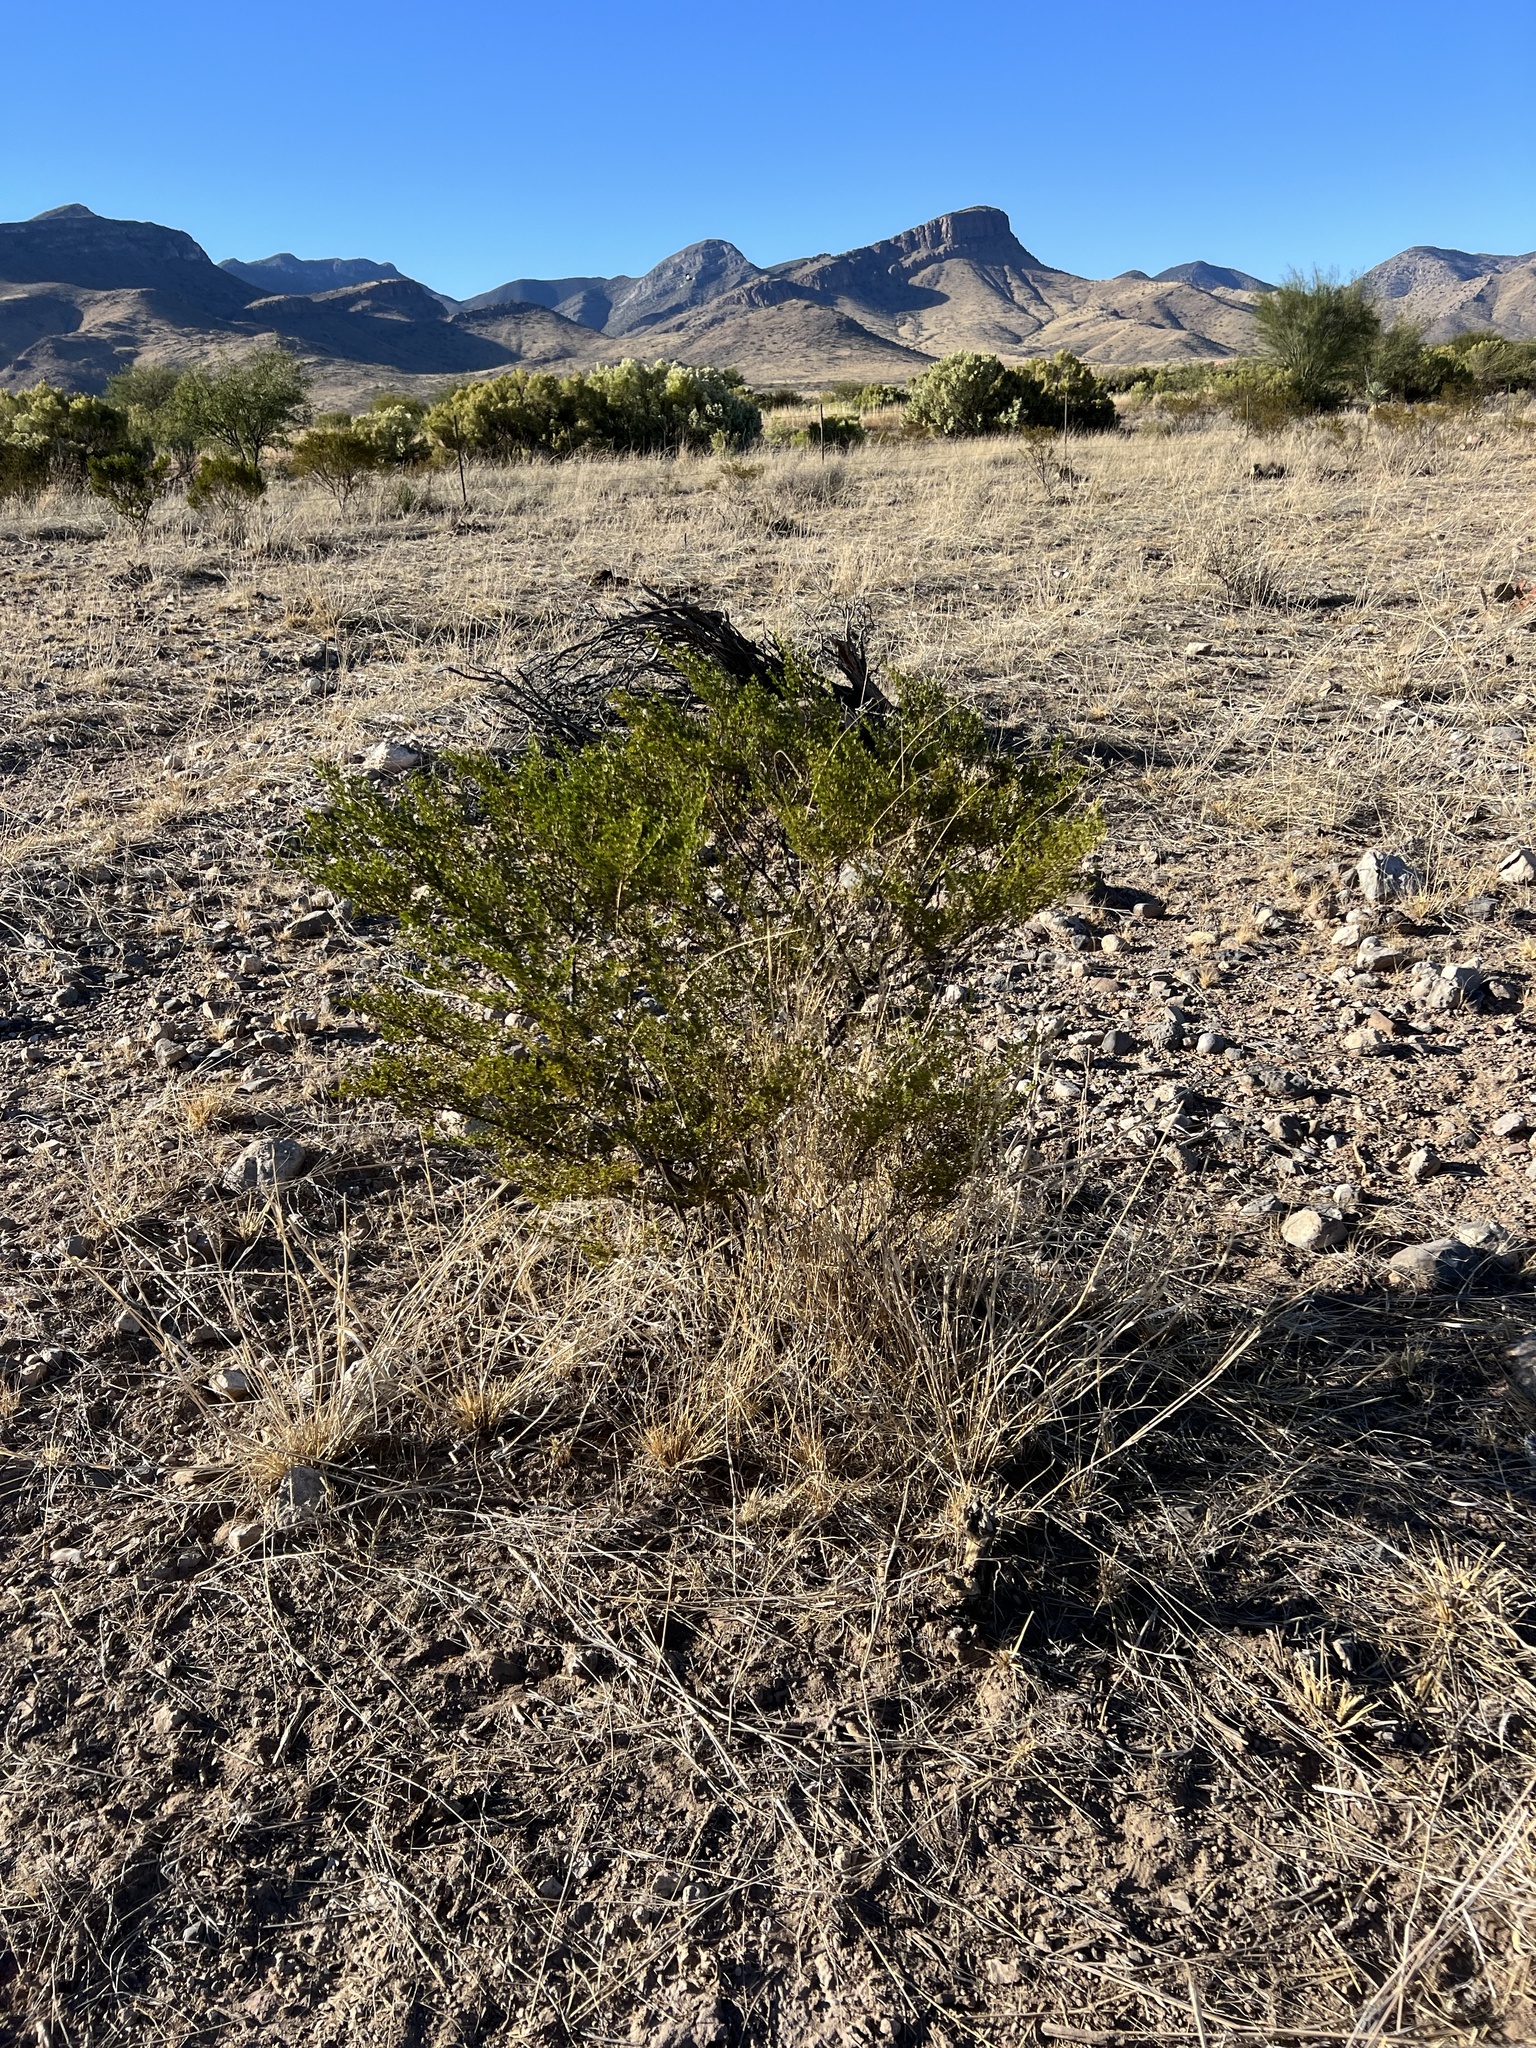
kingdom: Plantae
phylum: Tracheophyta
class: Magnoliopsida
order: Zygophyllales
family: Zygophyllaceae
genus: Larrea
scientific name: Larrea tridentata
